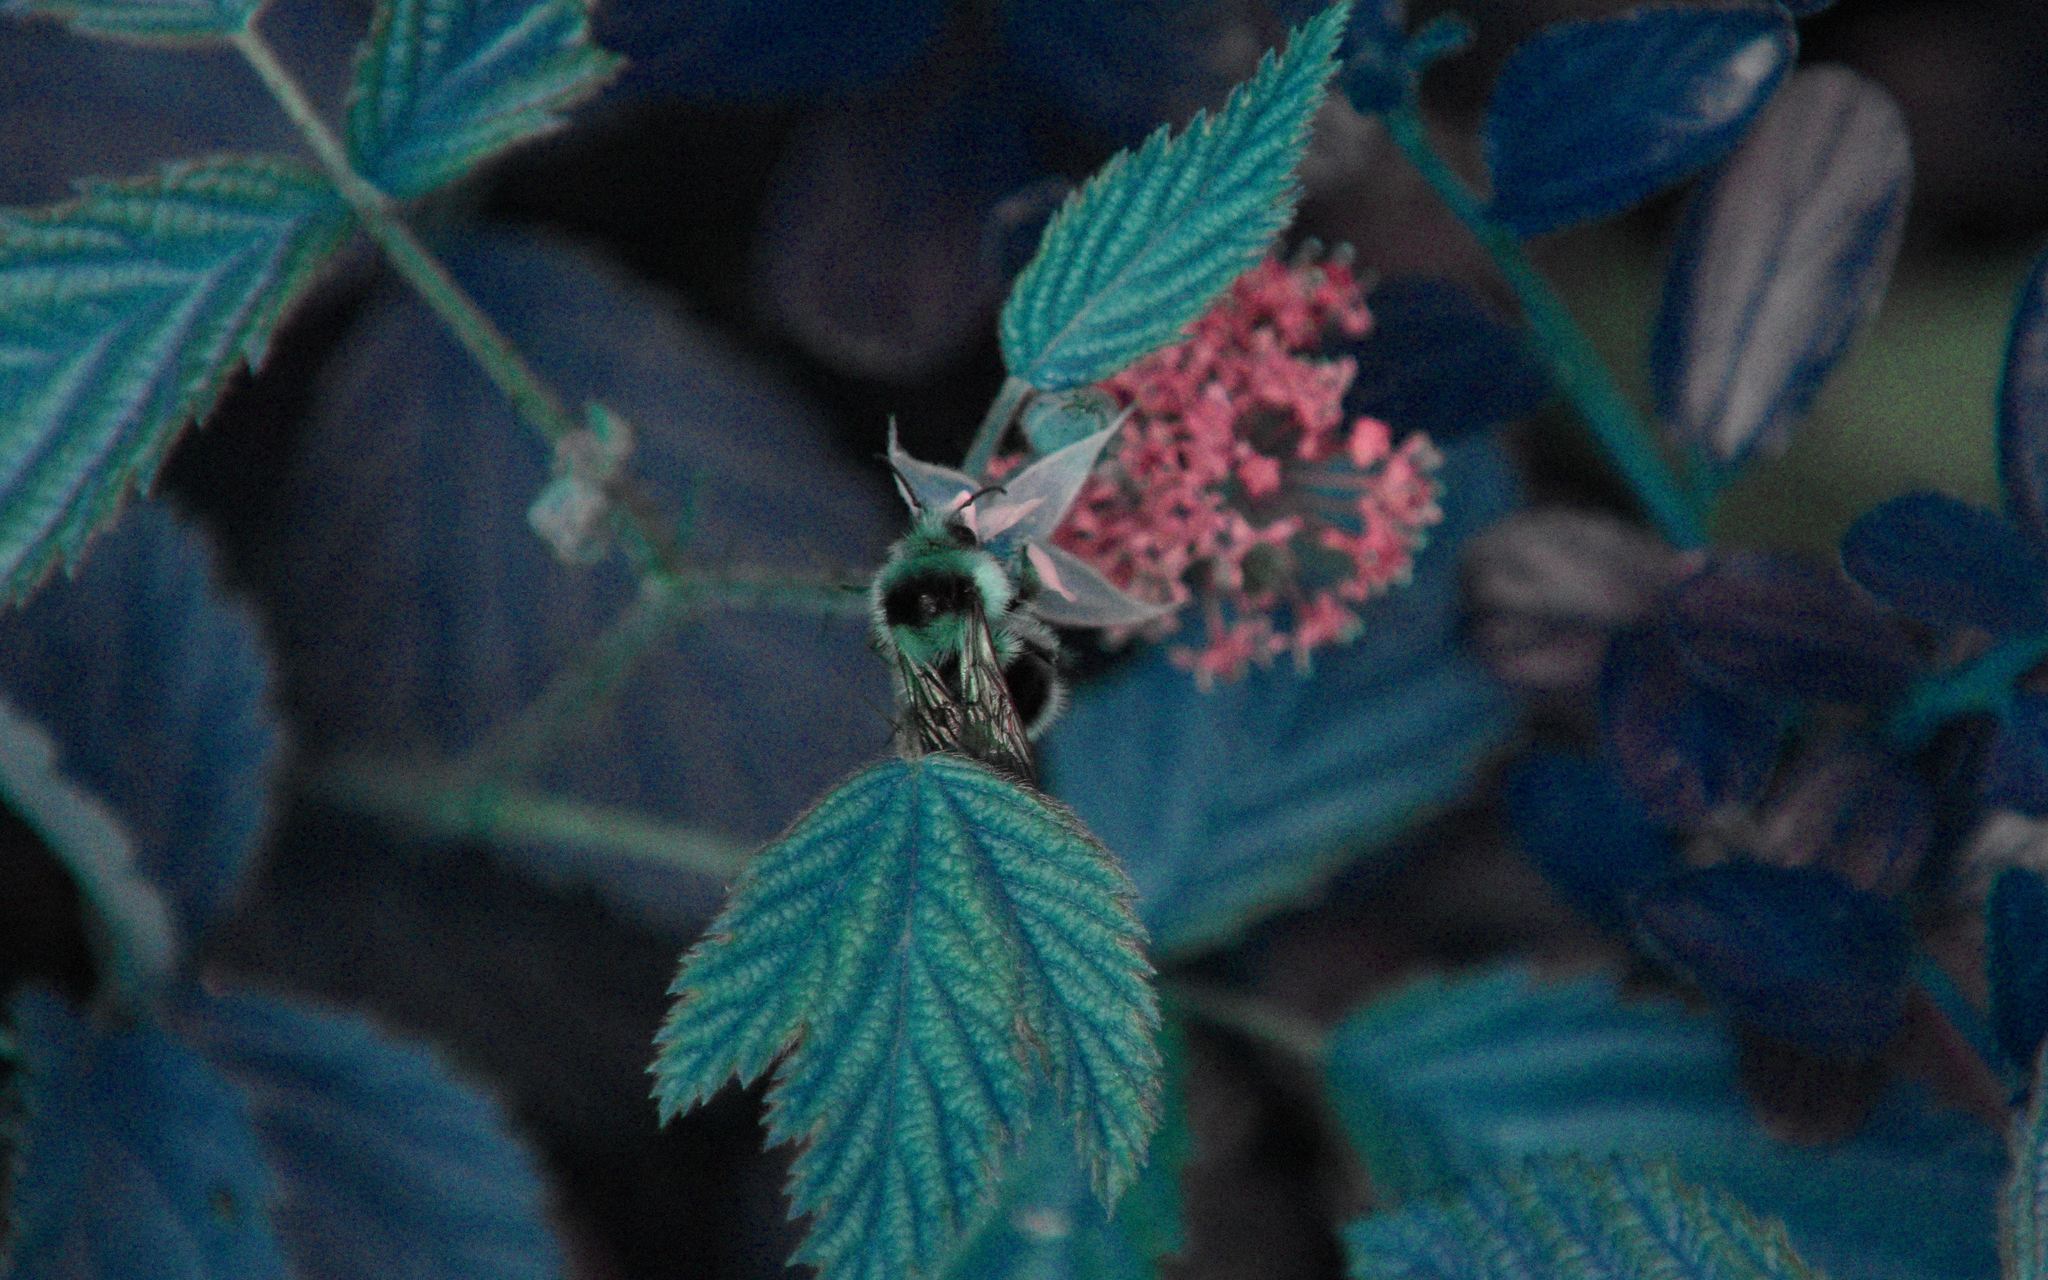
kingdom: Animalia
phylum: Arthropoda
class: Insecta
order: Hymenoptera
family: Apidae
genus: Bombus
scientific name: Bombus melanopygus
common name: Black tail bumble bee
